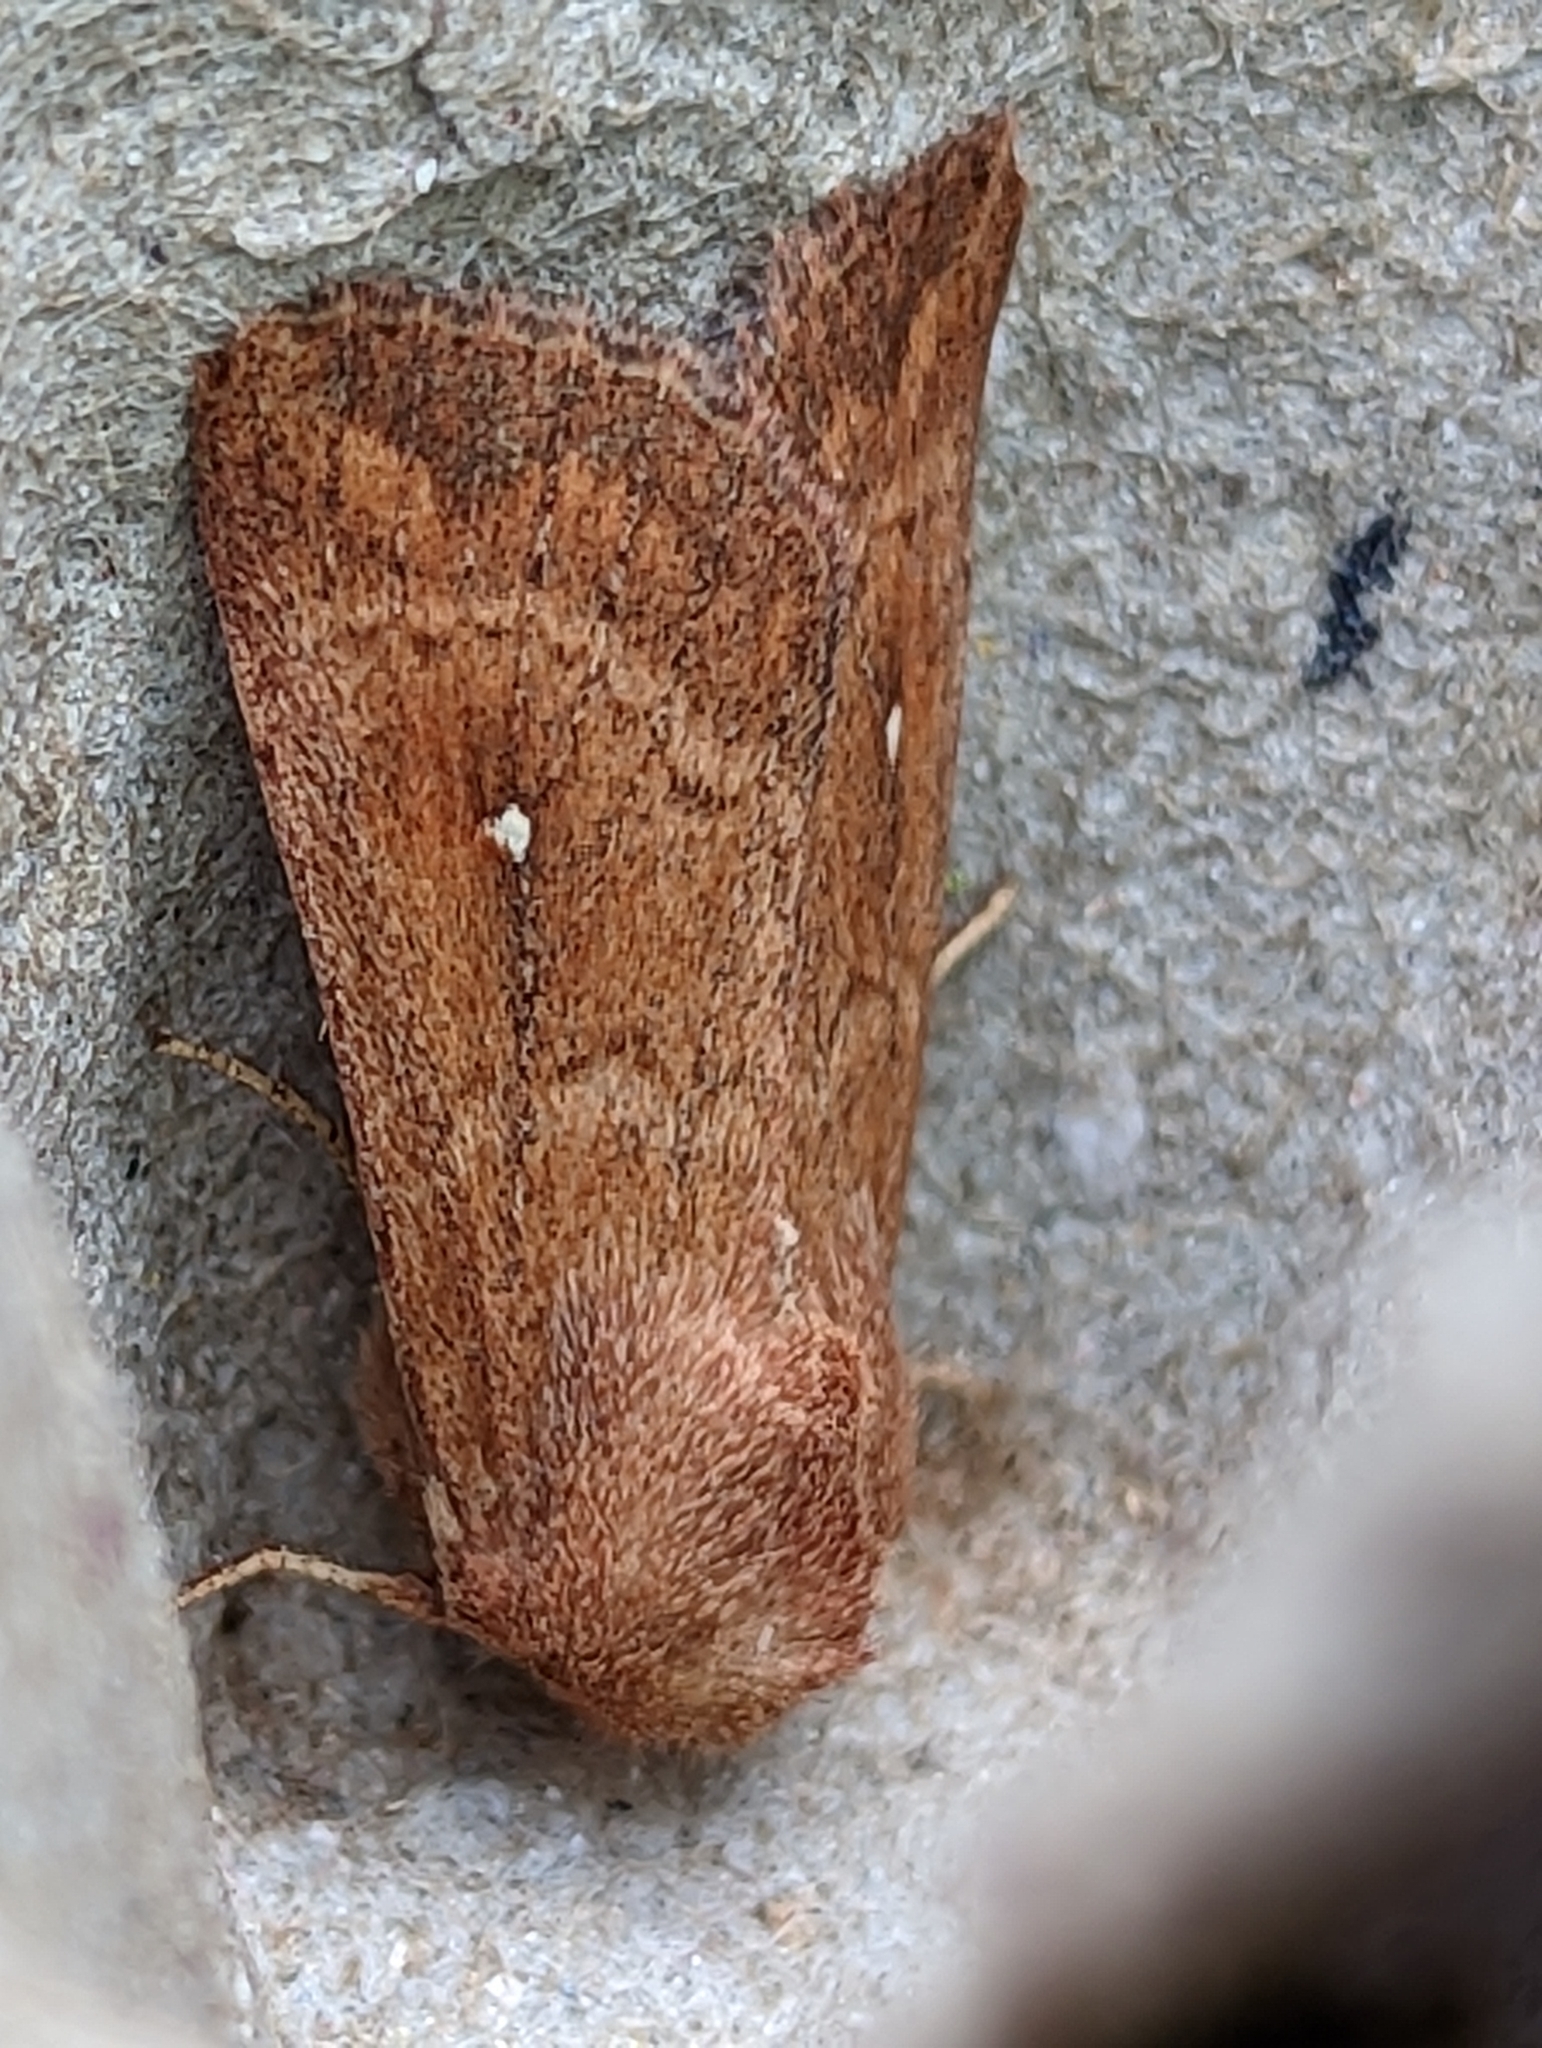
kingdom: Animalia
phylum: Arthropoda
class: Insecta
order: Lepidoptera
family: Noctuidae
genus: Mythimna
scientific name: Mythimna albipuncta
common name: White-point
